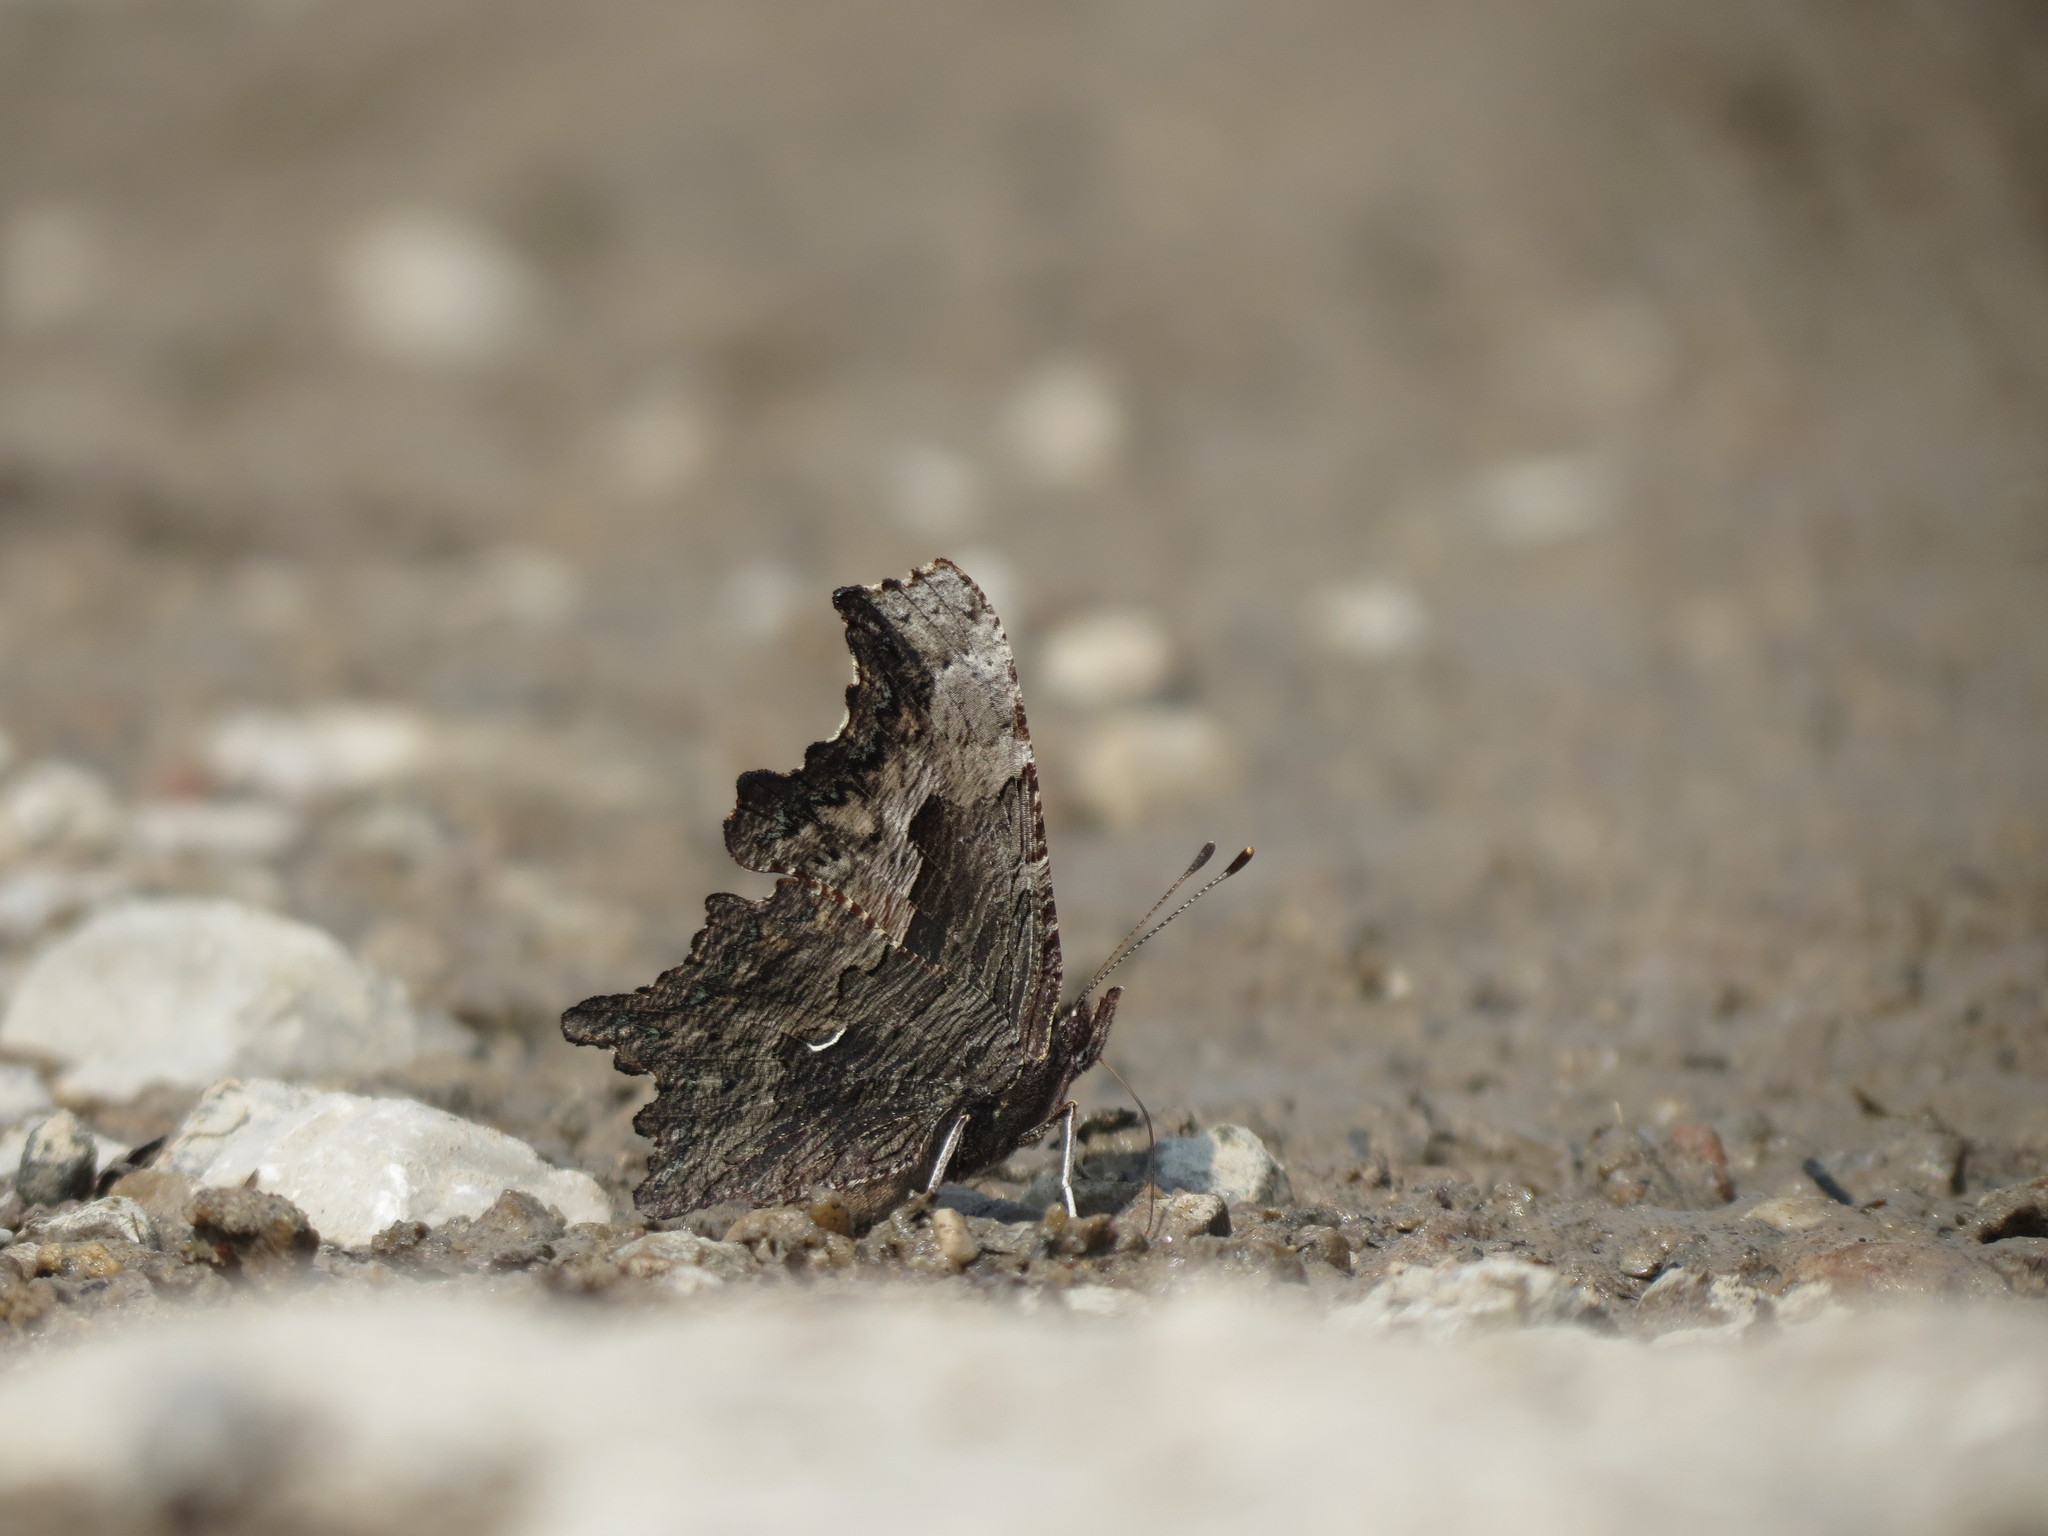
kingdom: Animalia
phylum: Arthropoda
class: Insecta
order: Lepidoptera
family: Nymphalidae
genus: Polygonia
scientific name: Polygonia progne
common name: Gray comma
